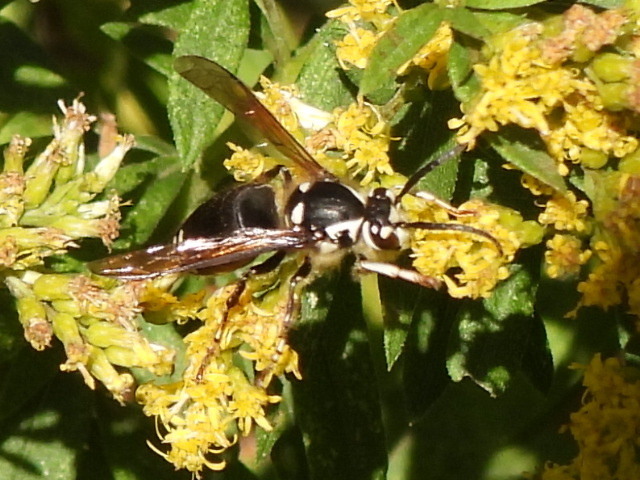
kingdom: Animalia
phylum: Arthropoda
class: Insecta
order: Hymenoptera
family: Vespidae
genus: Dolichovespula
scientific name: Dolichovespula maculata
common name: Bald-faced hornet
